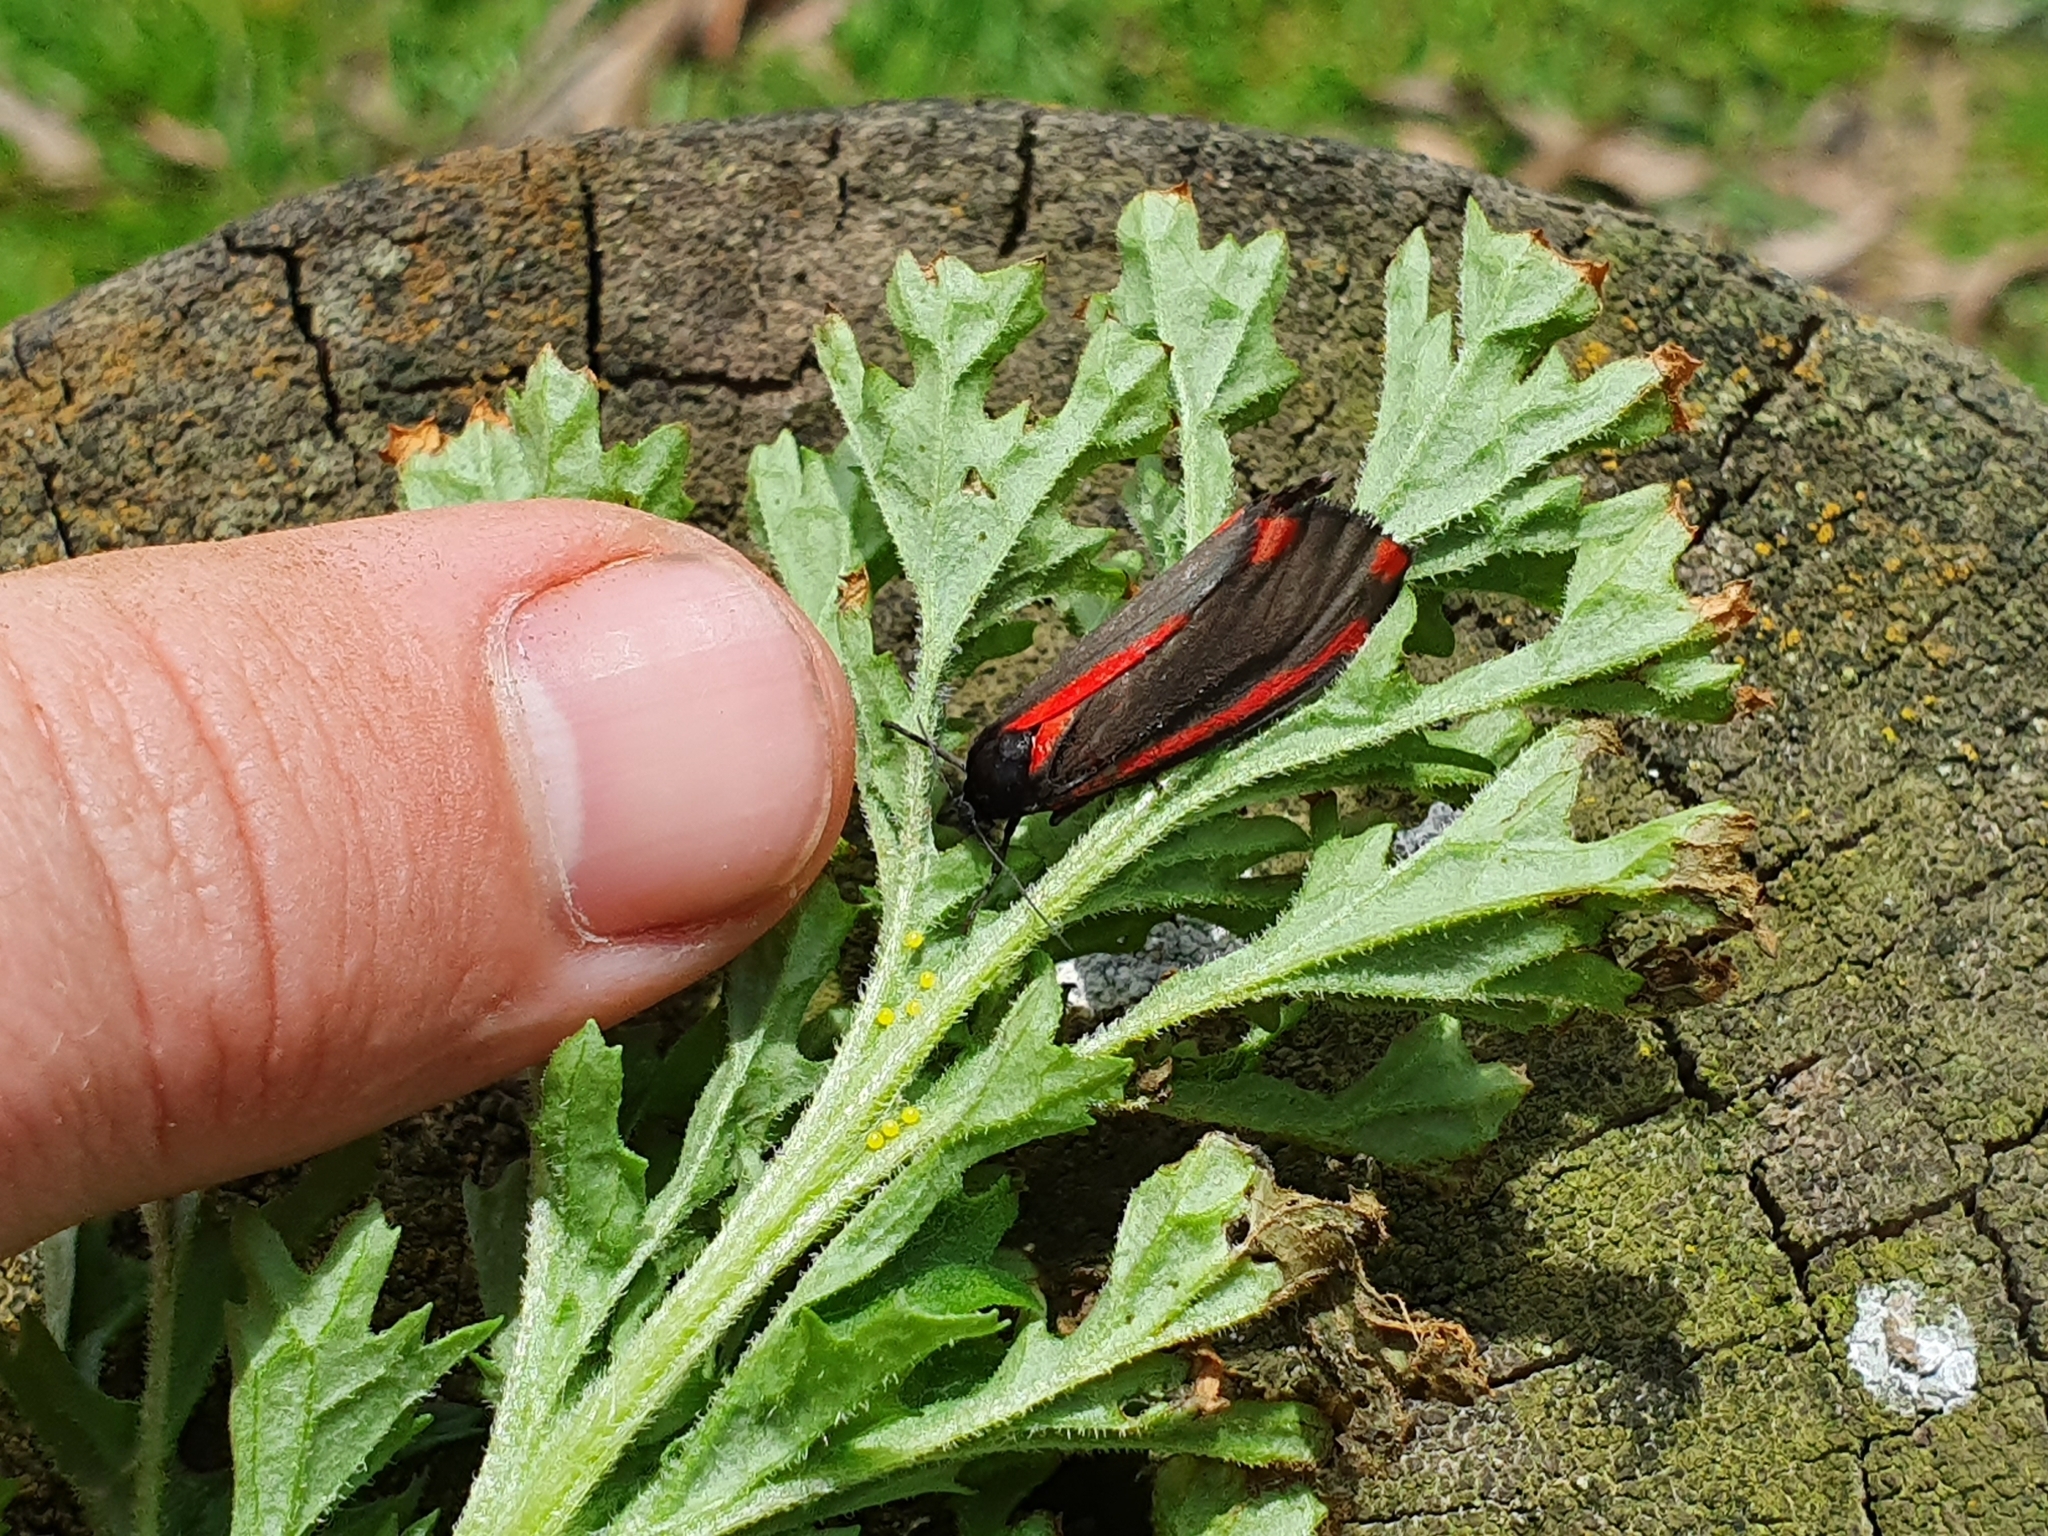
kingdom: Animalia
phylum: Arthropoda
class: Insecta
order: Lepidoptera
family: Erebidae
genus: Tyria
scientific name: Tyria jacobaeae
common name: Cinnabar
